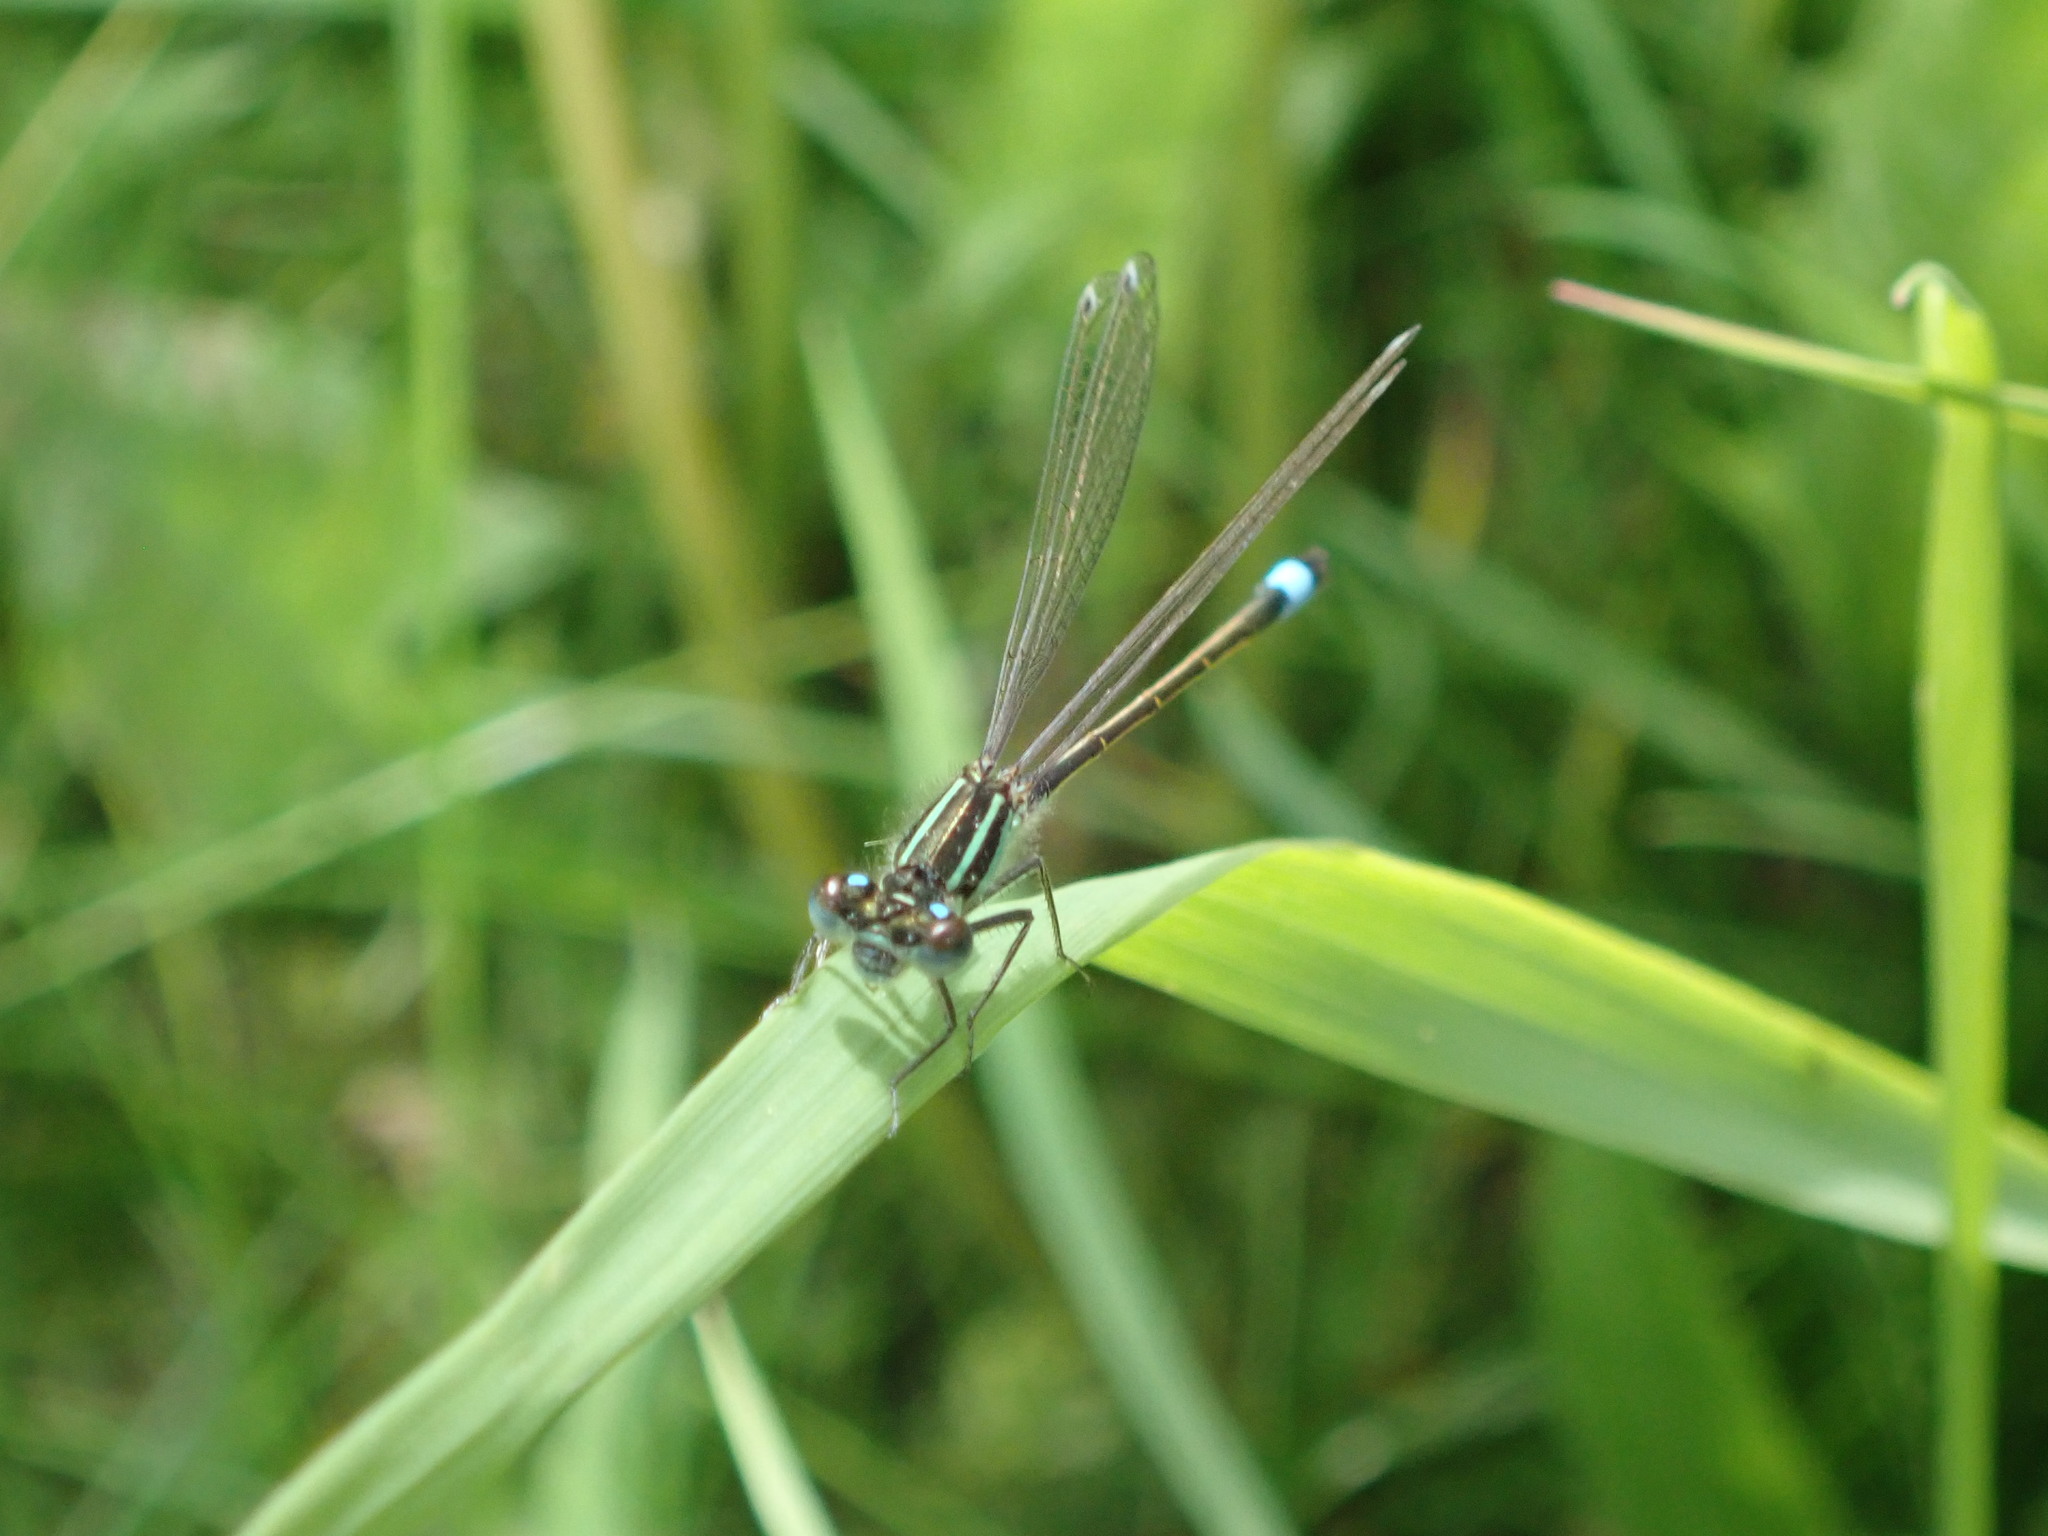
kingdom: Animalia
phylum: Arthropoda
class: Insecta
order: Odonata
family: Coenagrionidae
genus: Ischnura
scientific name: Ischnura elegans
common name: Blue-tailed damselfly
